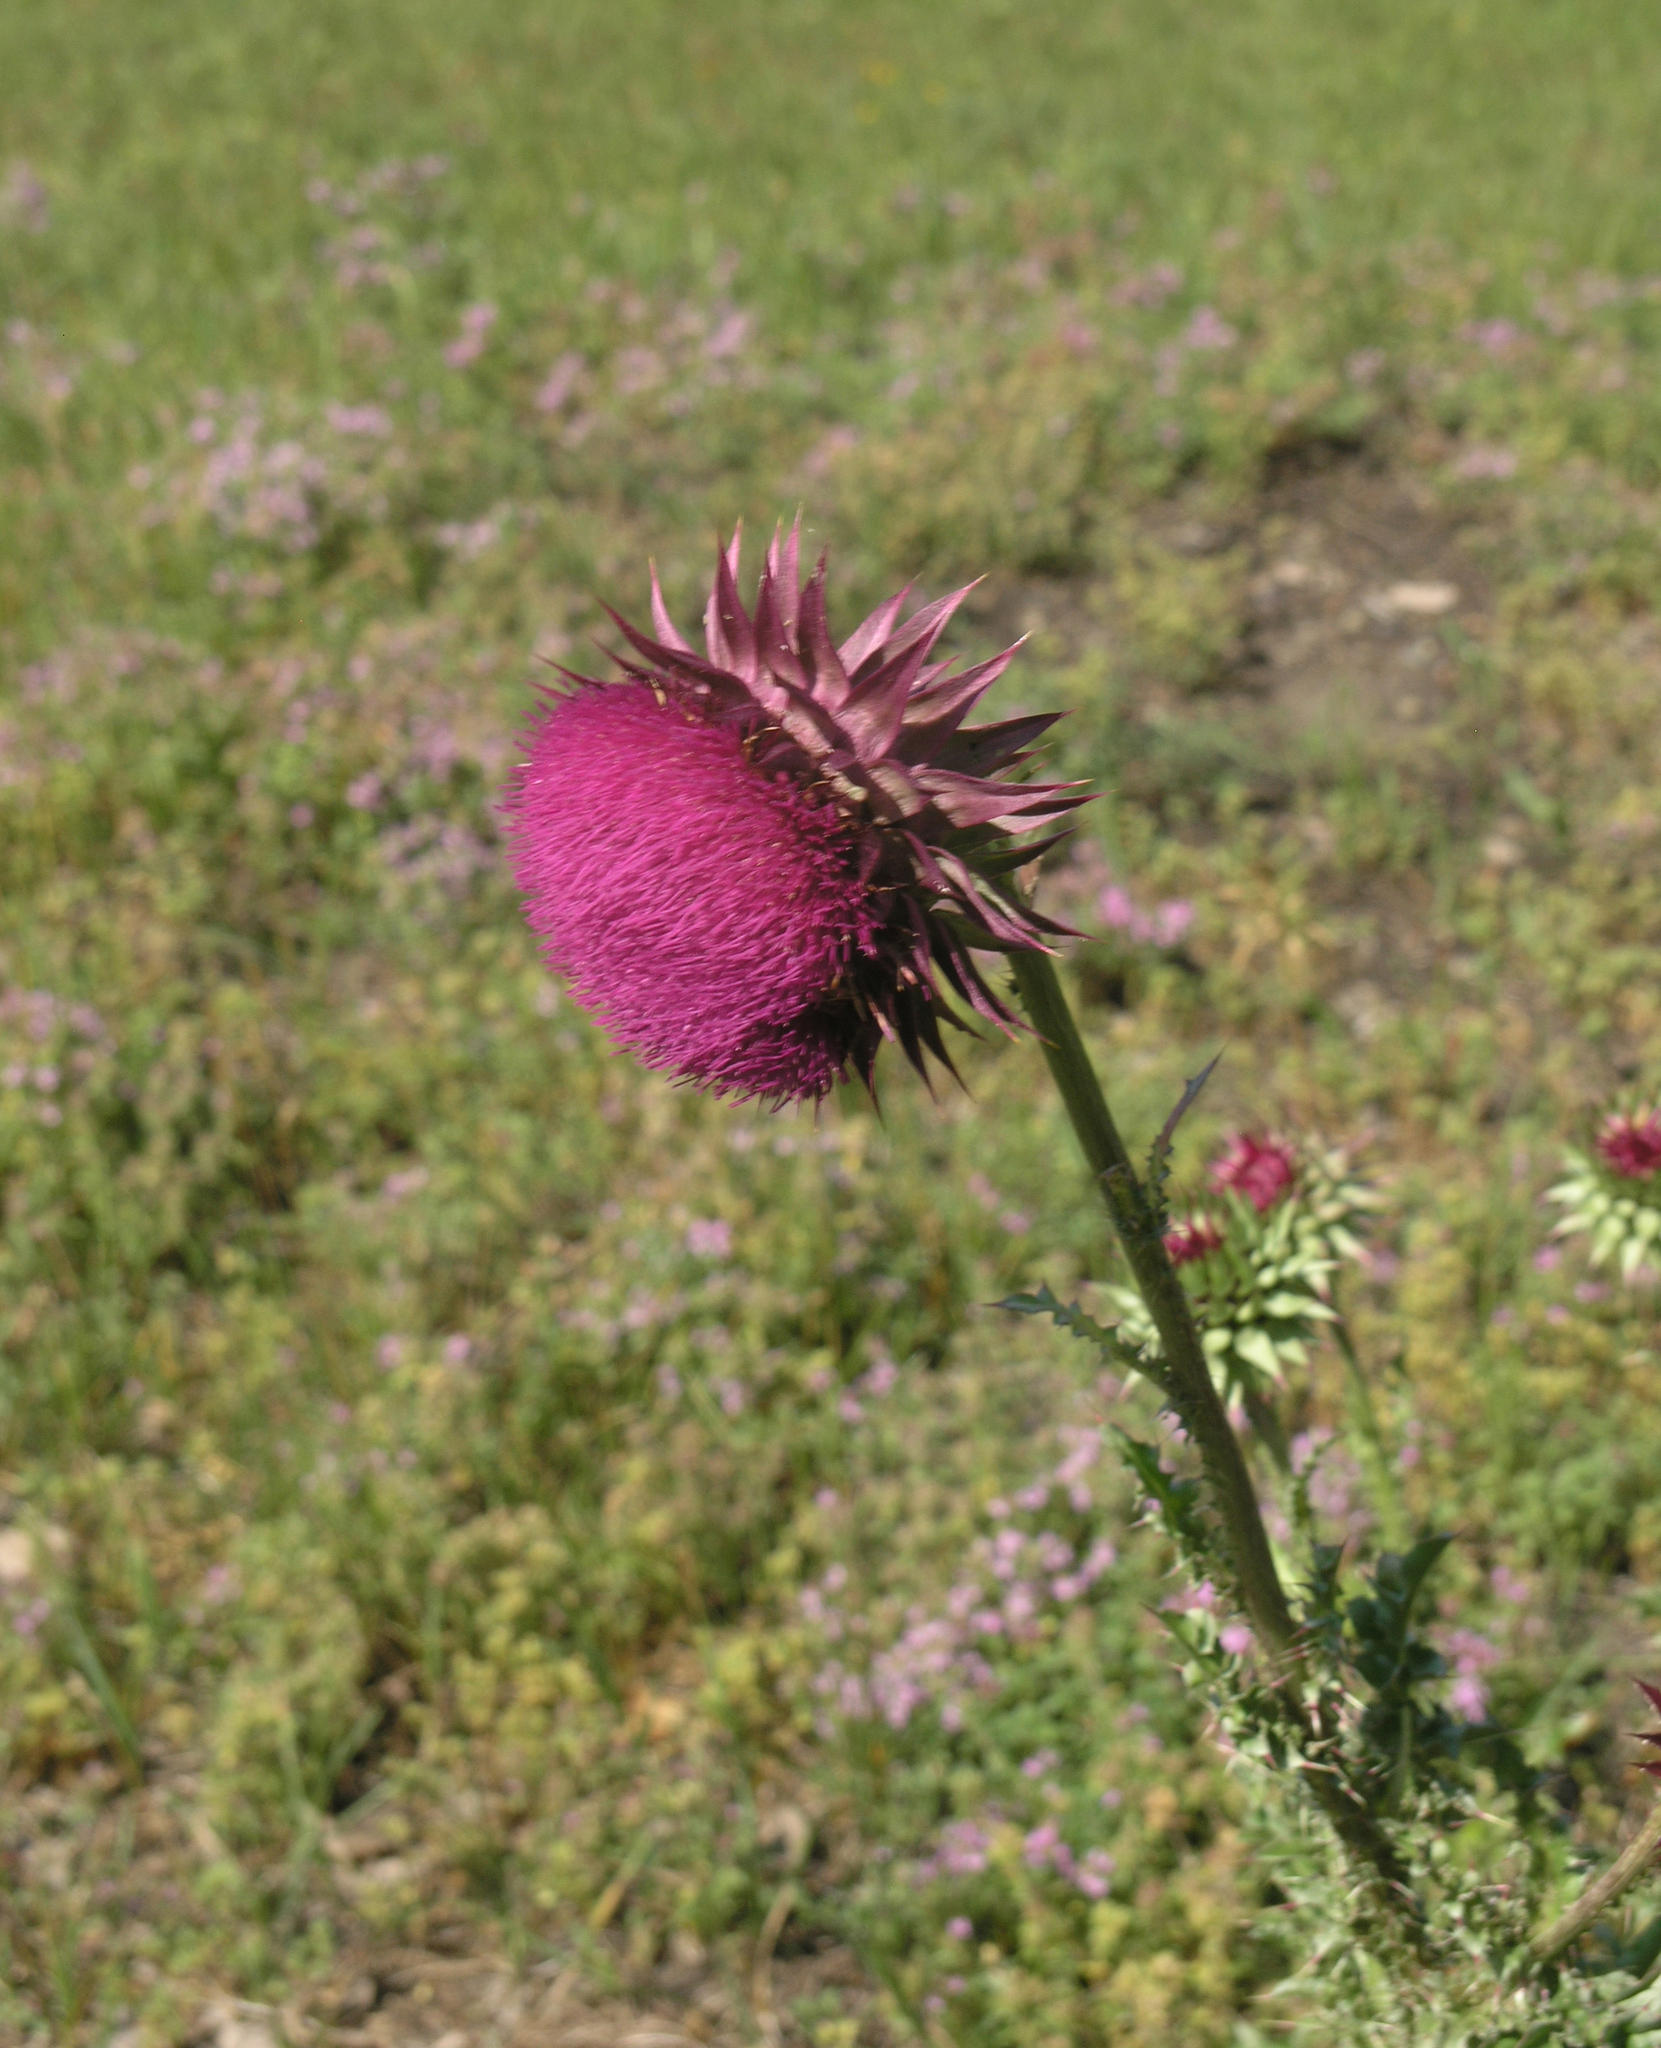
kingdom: Plantae
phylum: Tracheophyta
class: Magnoliopsida
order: Asterales
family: Asteraceae
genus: Carduus
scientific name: Carduus nutans
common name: Musk thistle
